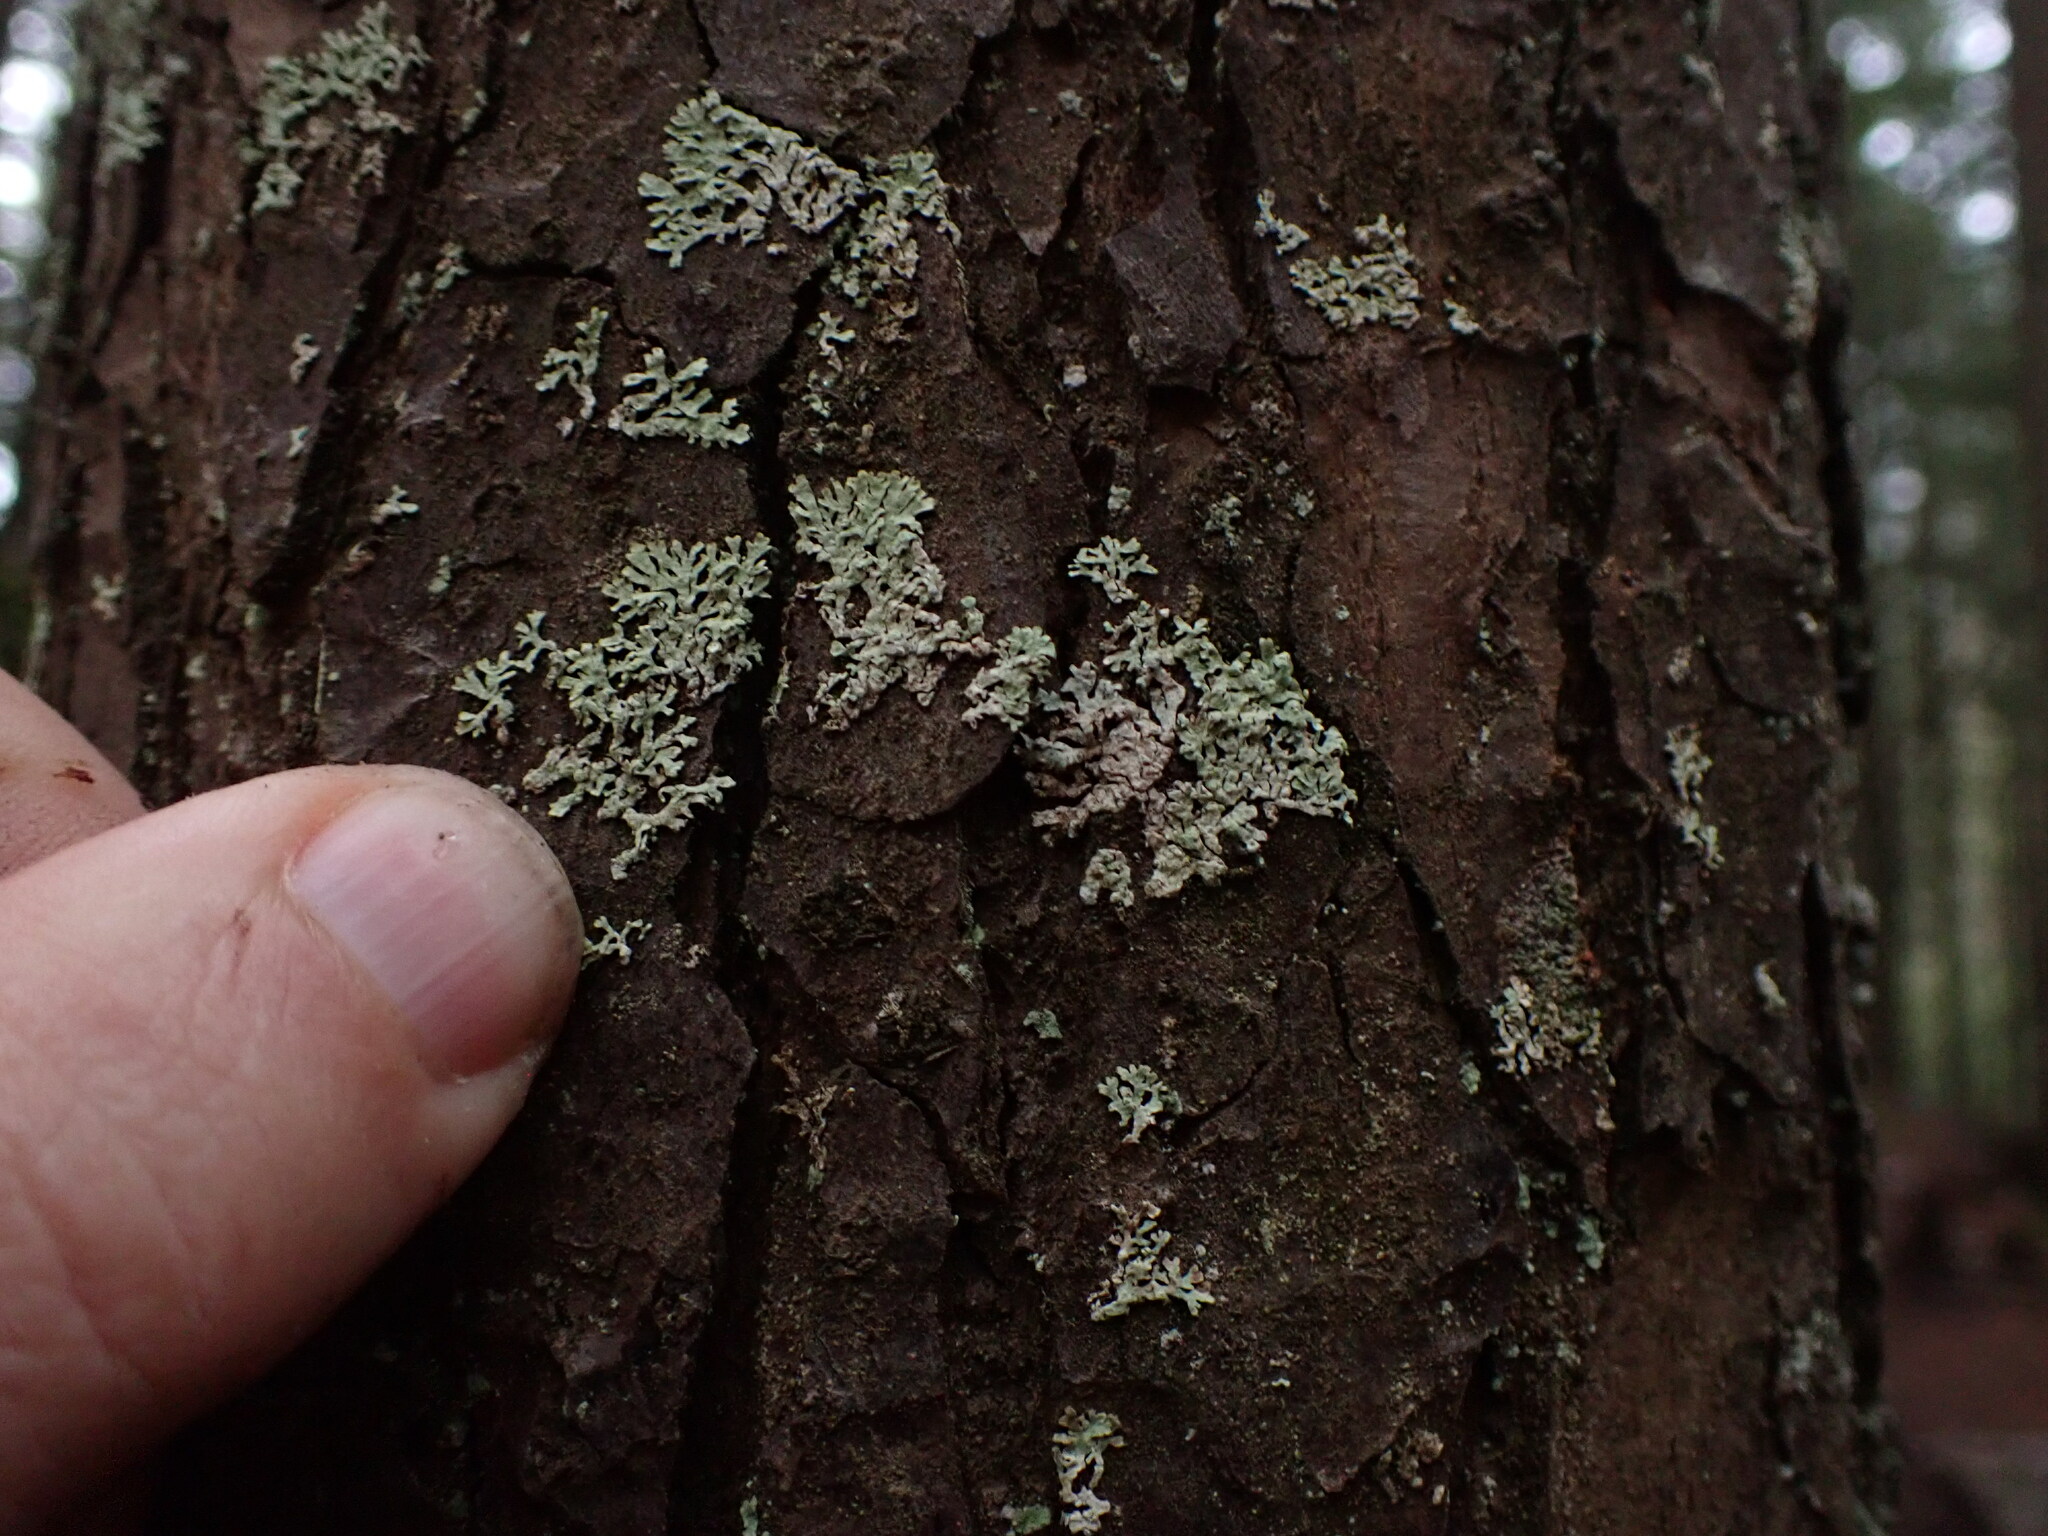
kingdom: Fungi
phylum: Ascomycota
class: Lecanoromycetes
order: Lecanorales
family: Parmeliaceae
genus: Parmeliopsis
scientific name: Parmeliopsis ambigua
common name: Green starburst lichen
